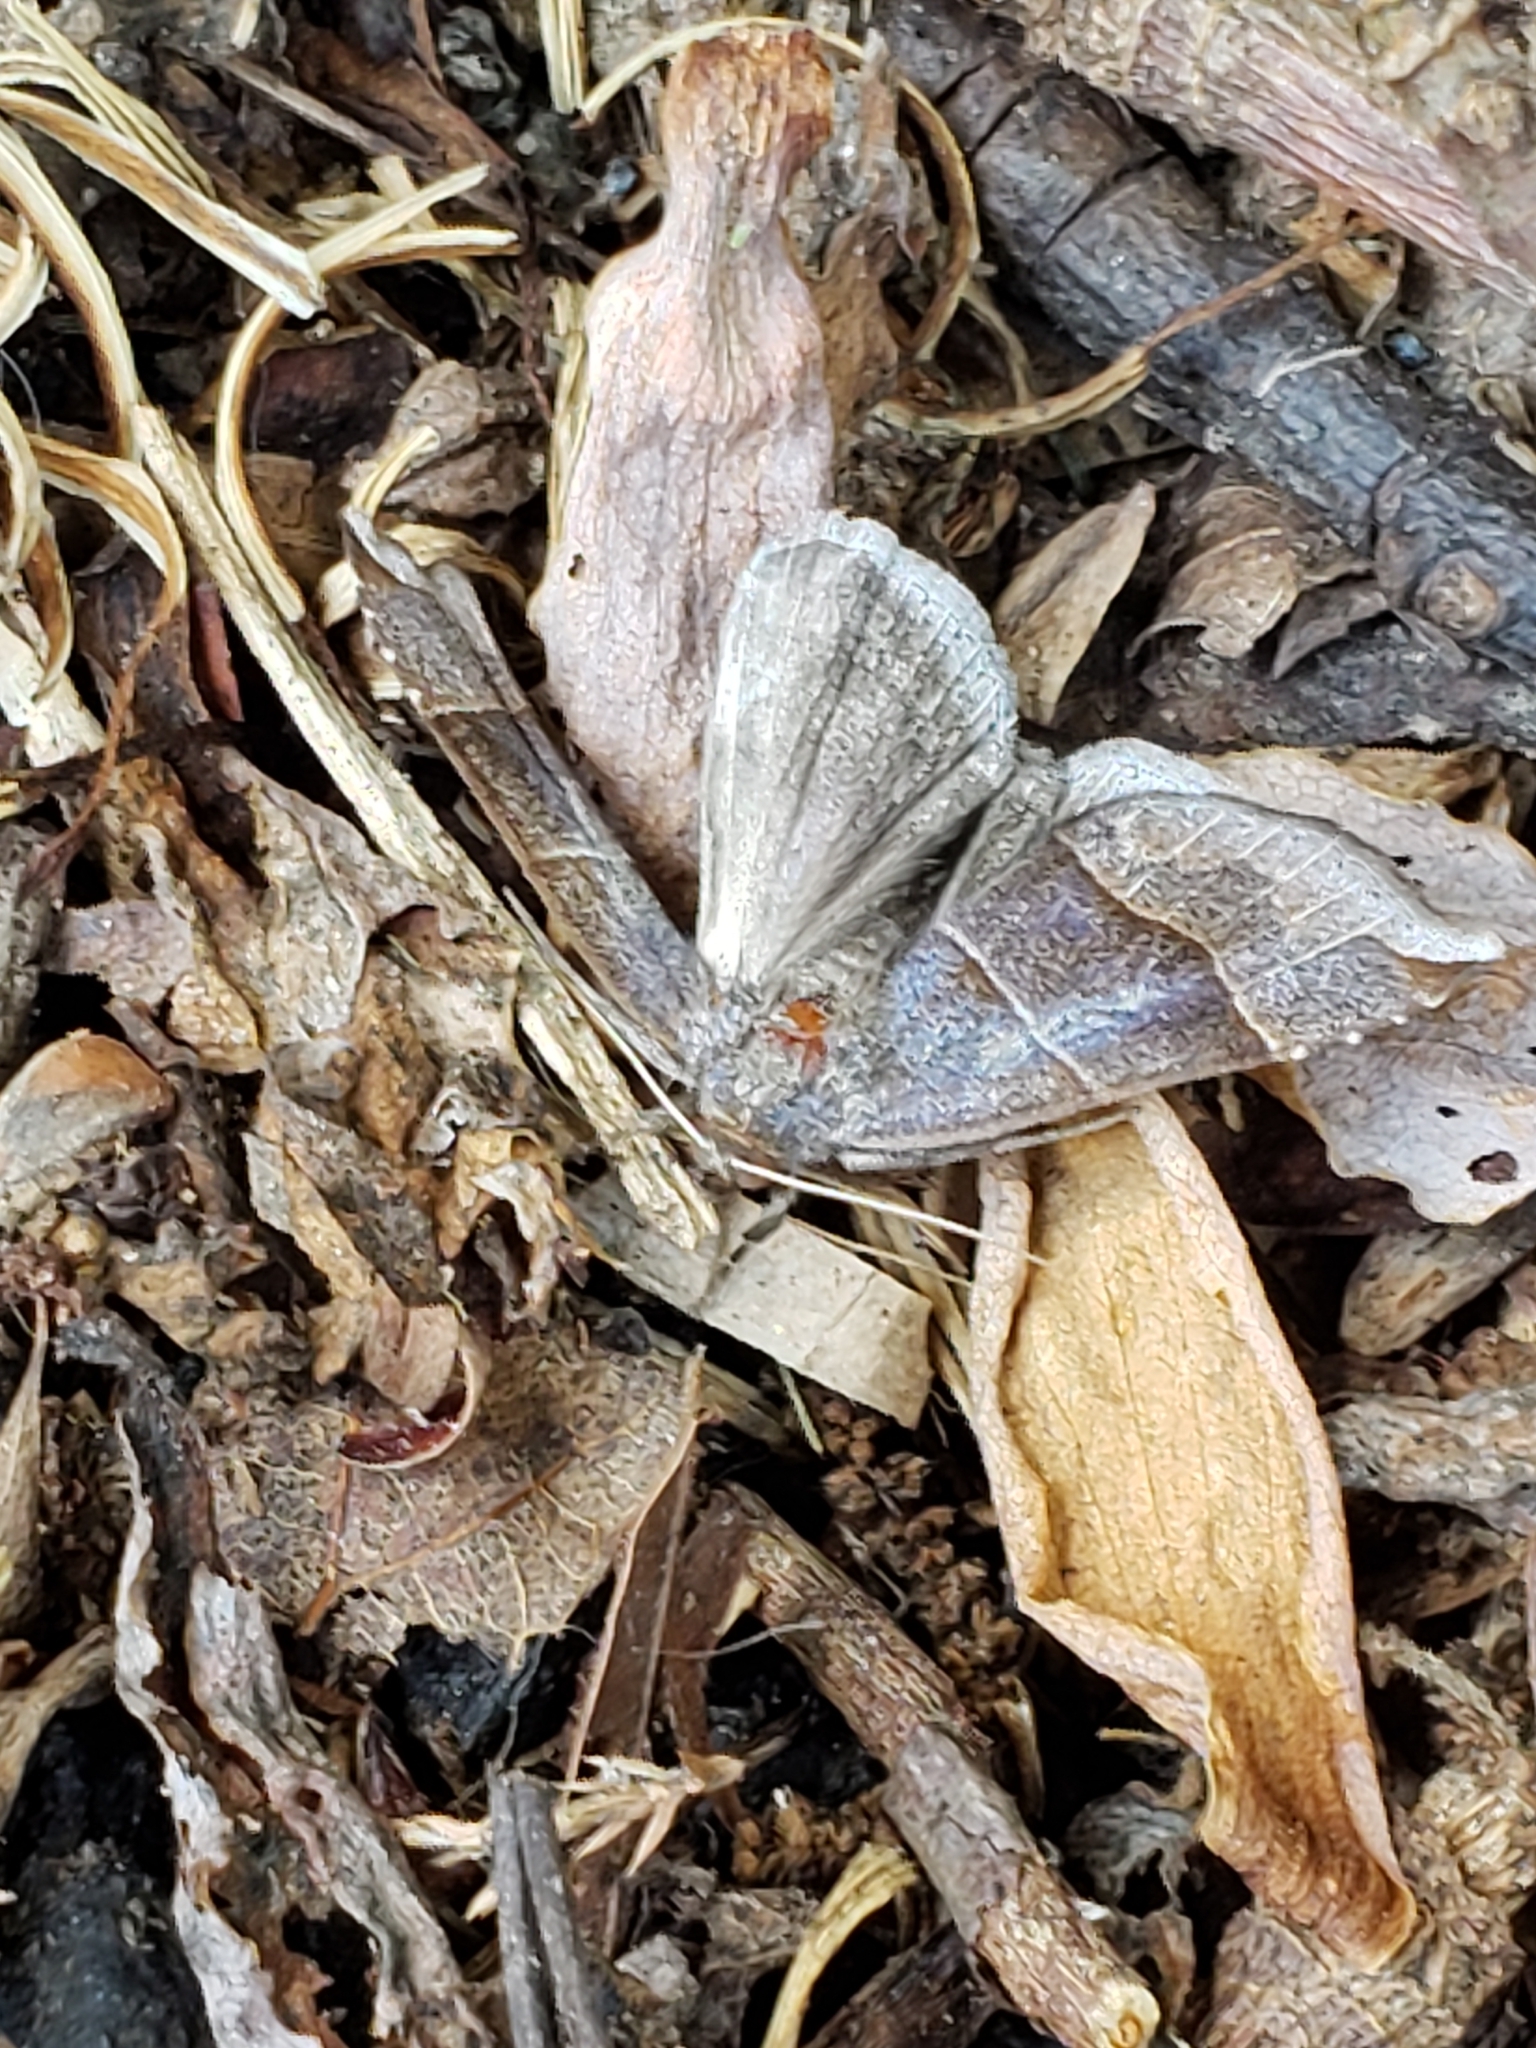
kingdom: Animalia
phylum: Arthropoda
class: Insecta
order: Lepidoptera
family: Erebidae
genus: Parallelia
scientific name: Parallelia bistriaris
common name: Maple looper moth
